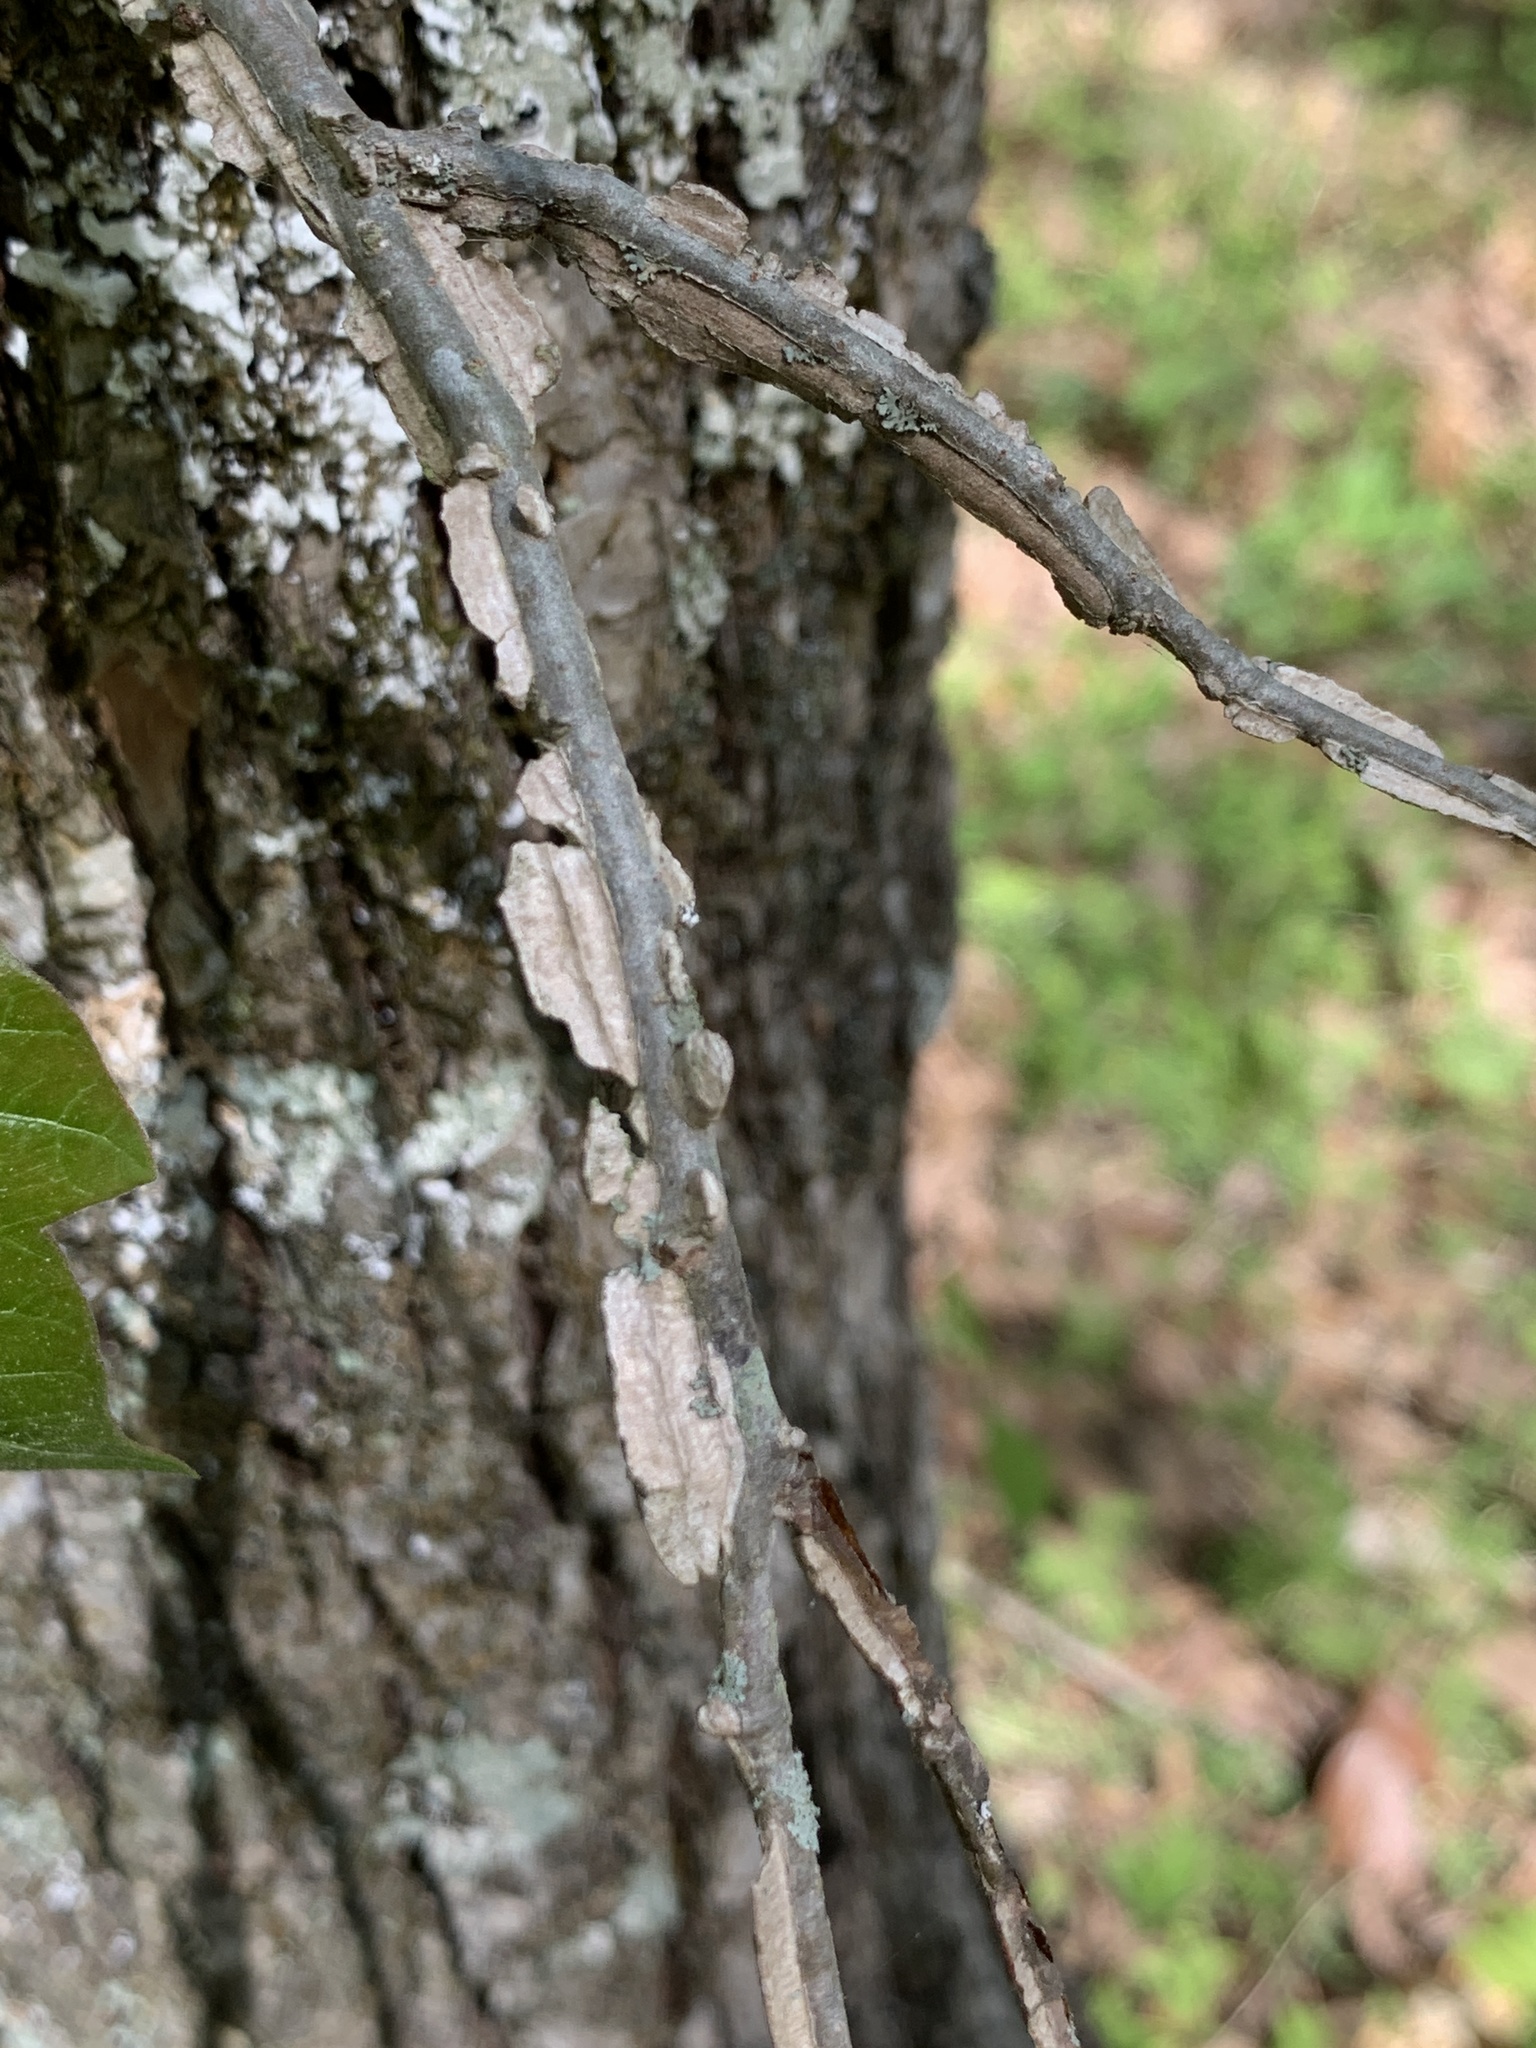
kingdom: Plantae
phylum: Tracheophyta
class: Magnoliopsida
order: Rosales
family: Ulmaceae
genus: Ulmus
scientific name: Ulmus alata
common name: Winged elm
